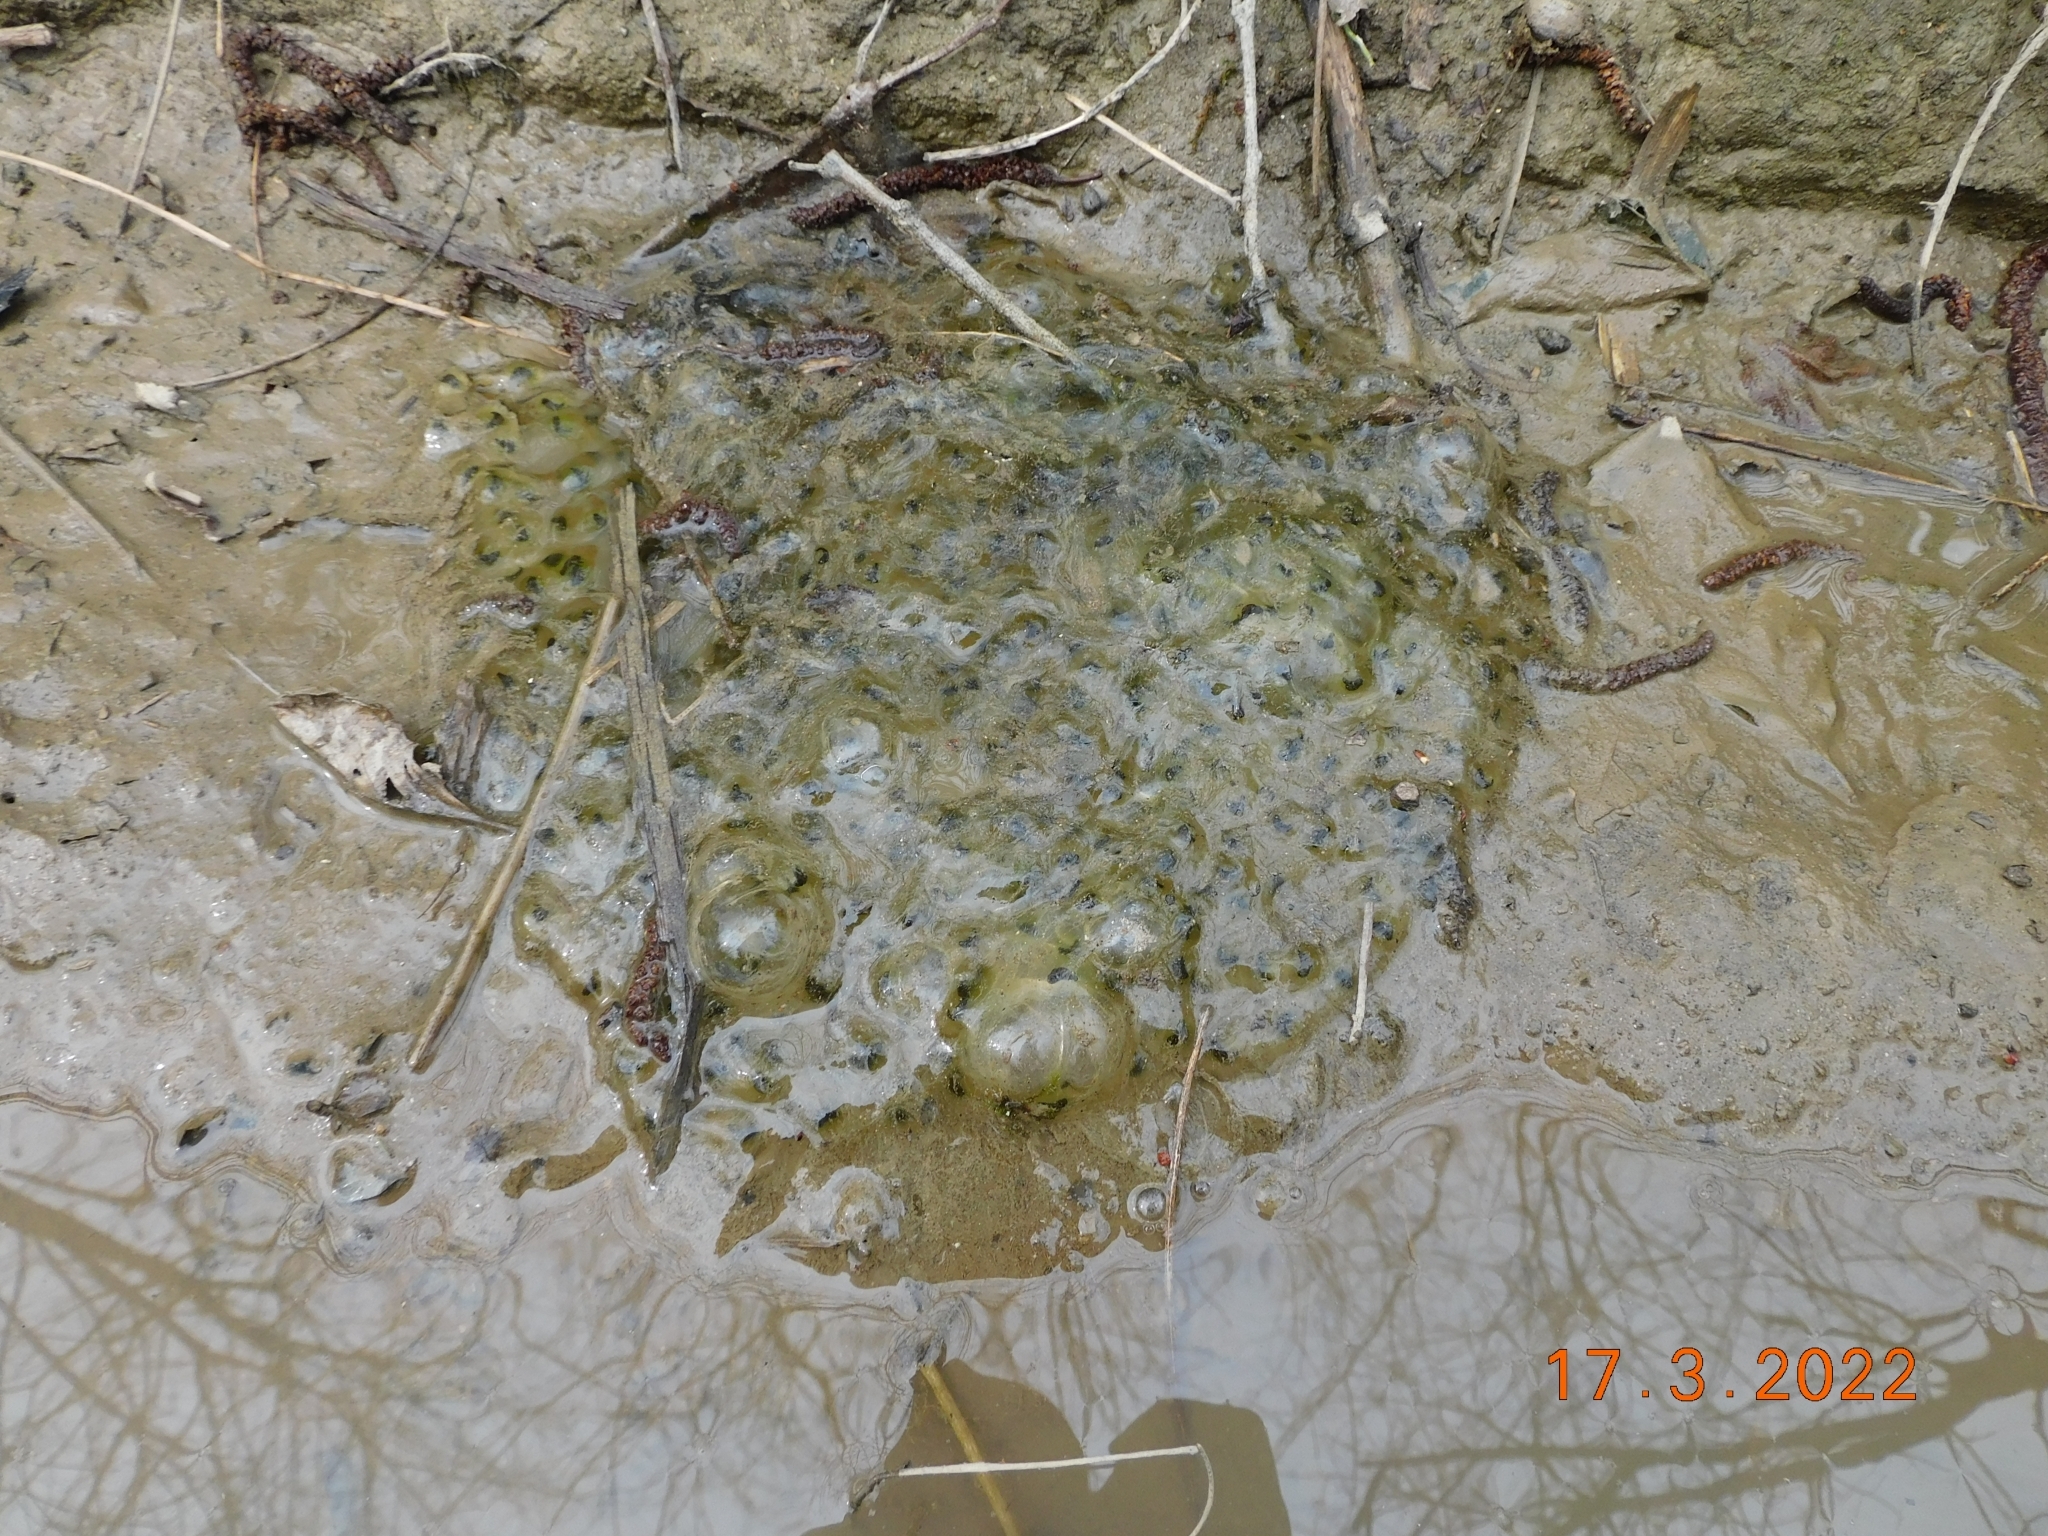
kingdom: Animalia
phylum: Chordata
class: Amphibia
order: Anura
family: Ranidae
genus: Rana
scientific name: Rana dalmatina
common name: Agile frog
